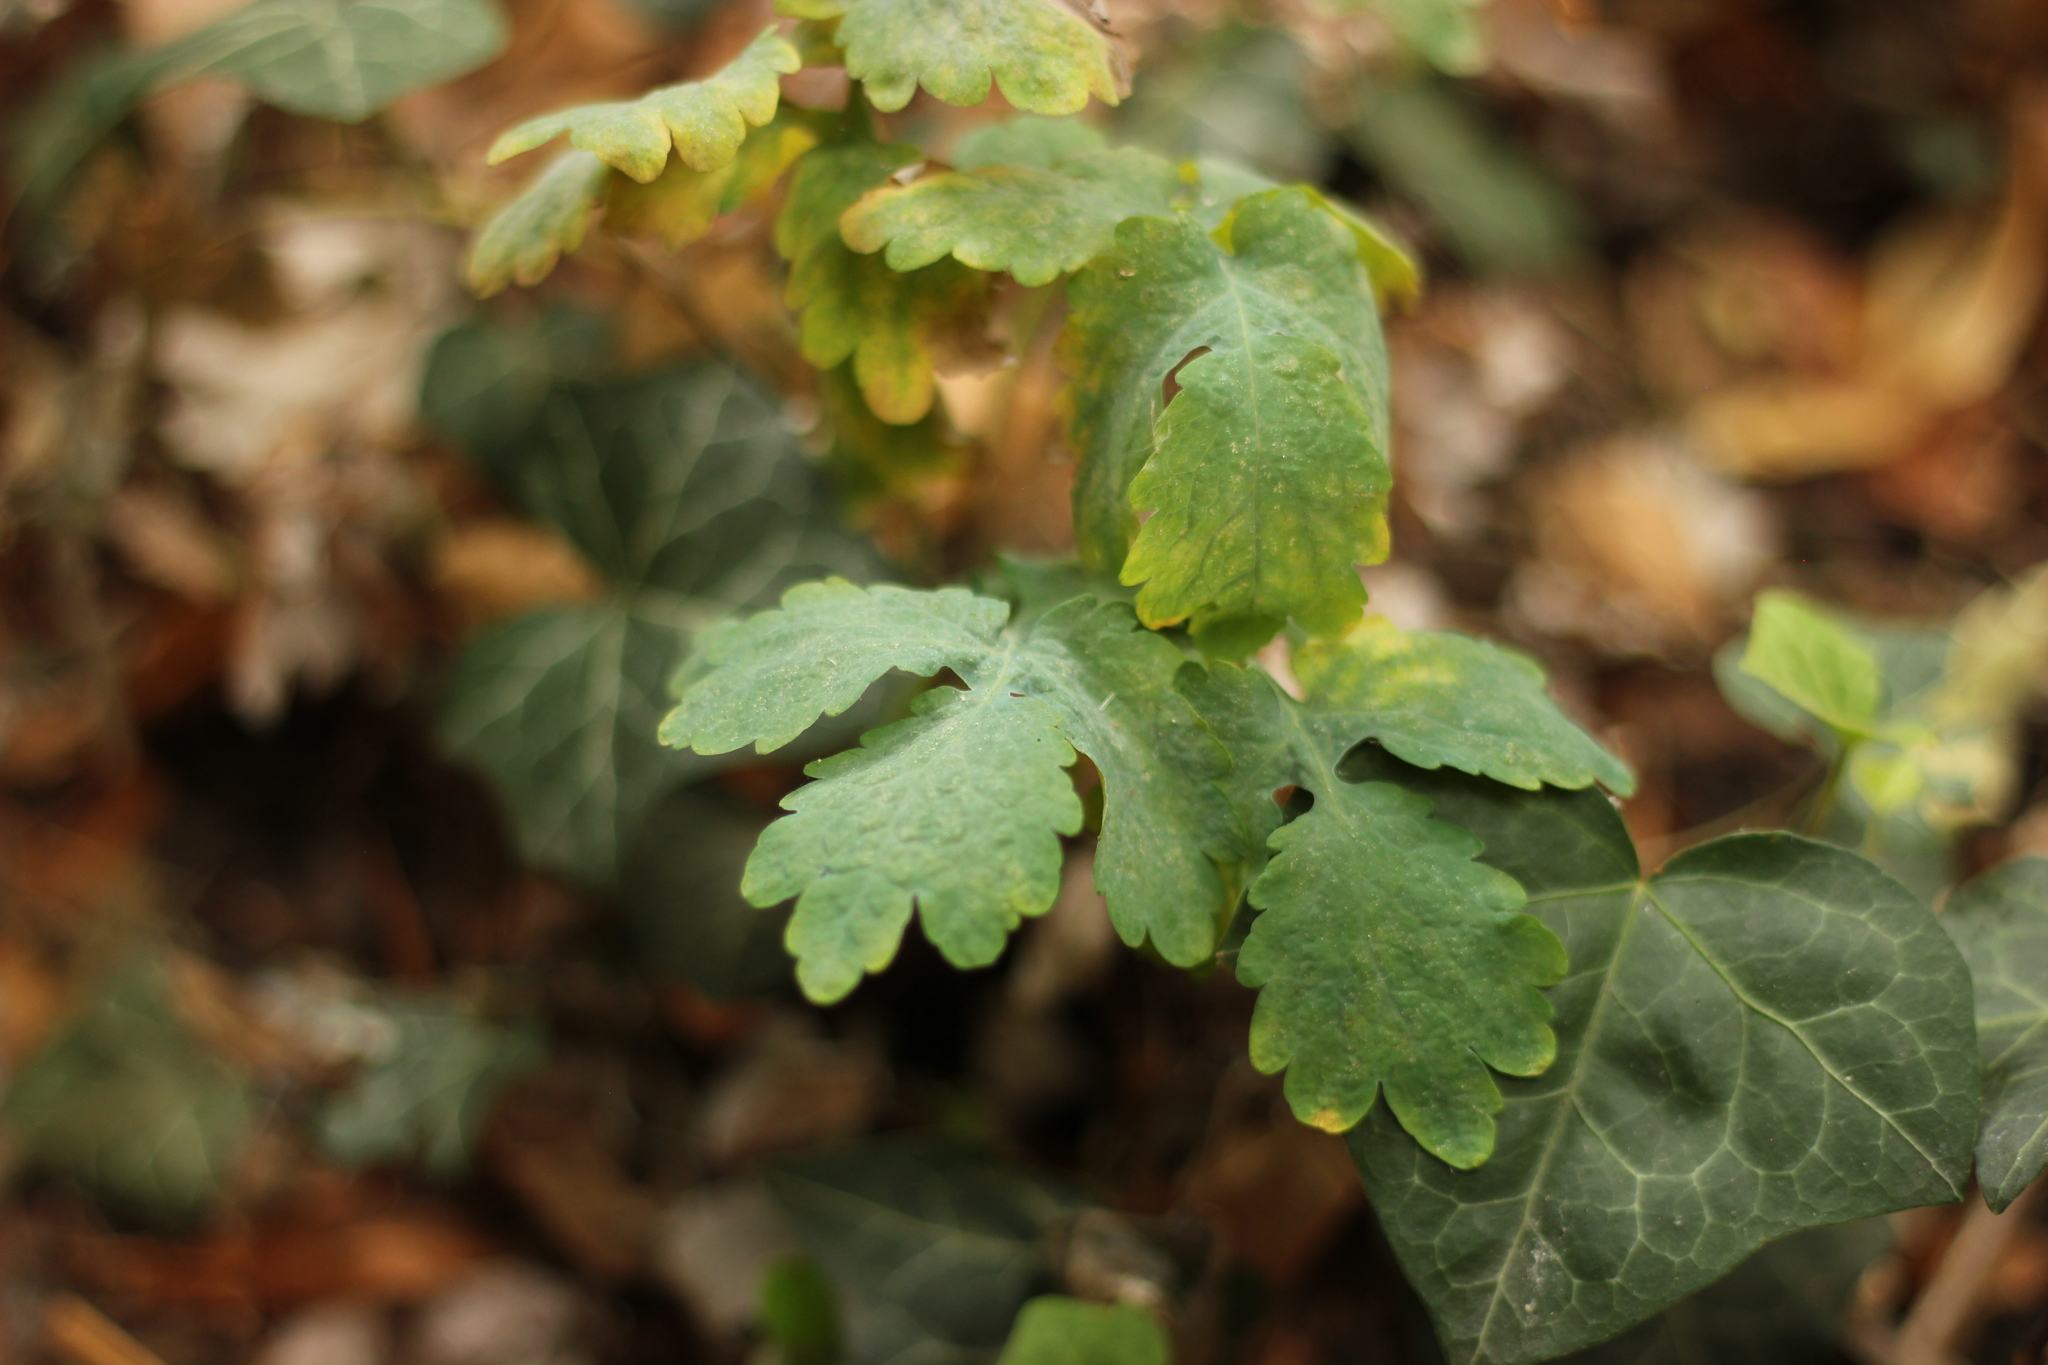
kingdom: Plantae
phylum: Tracheophyta
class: Magnoliopsida
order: Ranunculales
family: Papaveraceae
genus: Chelidonium
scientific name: Chelidonium majus
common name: Greater celandine
